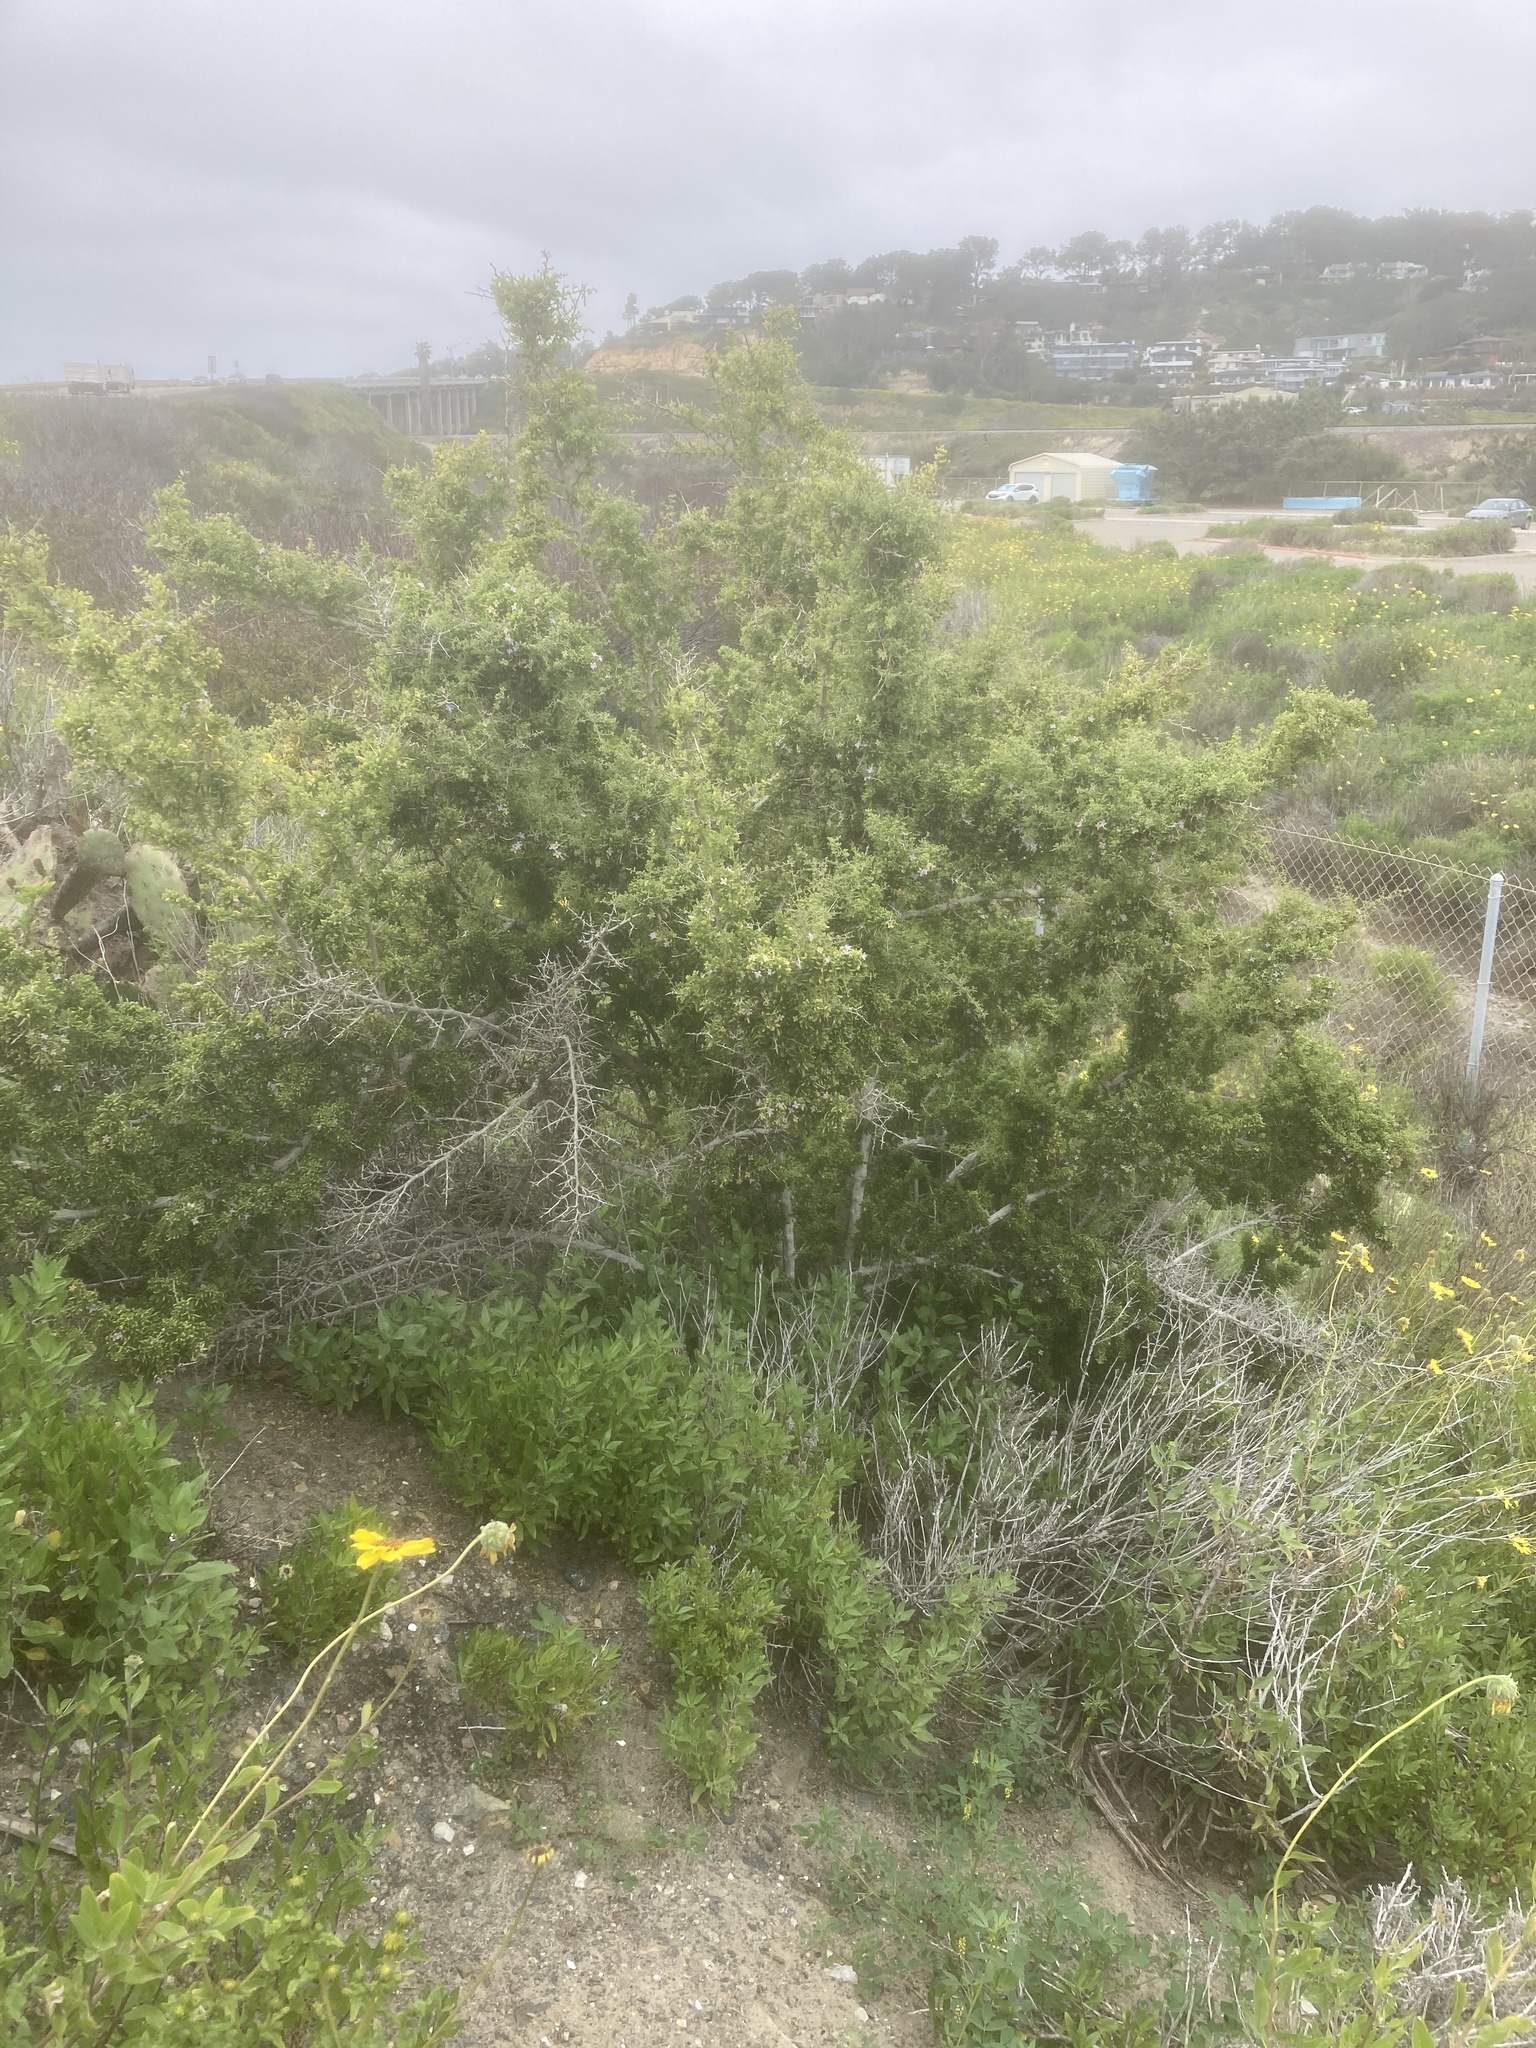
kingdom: Plantae
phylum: Tracheophyta
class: Magnoliopsida
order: Solanales
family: Solanaceae
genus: Lycium
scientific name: Lycium californicum
